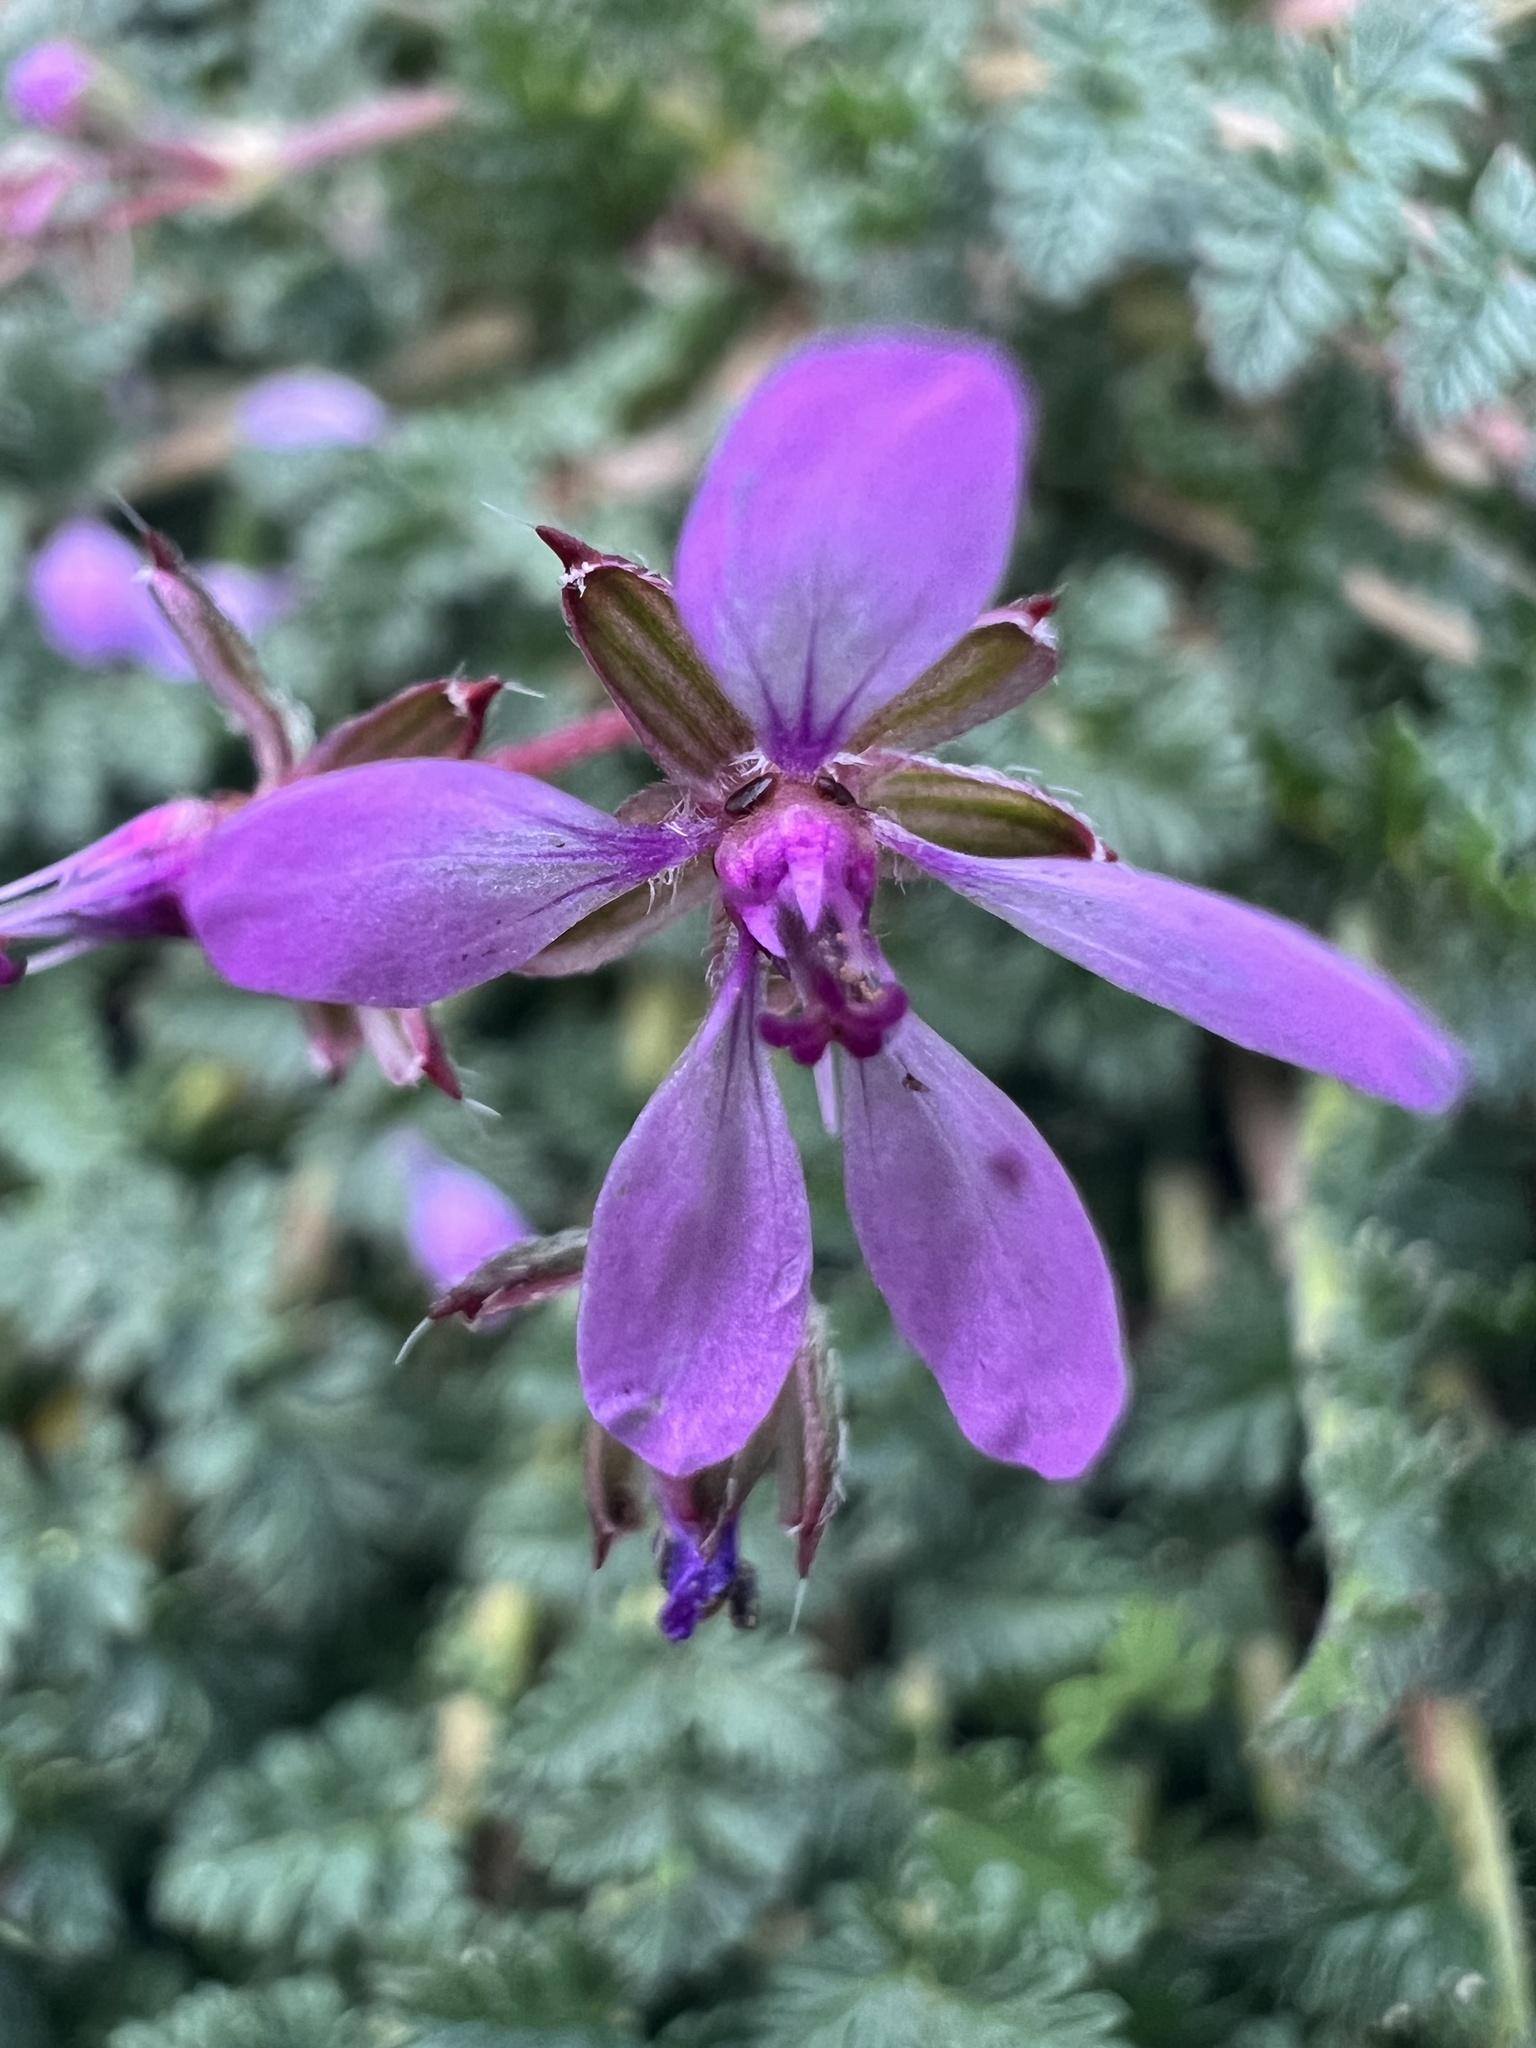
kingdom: Plantae
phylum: Tracheophyta
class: Magnoliopsida
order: Geraniales
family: Geraniaceae
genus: Erodium
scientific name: Erodium cicutarium
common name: Common stork's-bill
